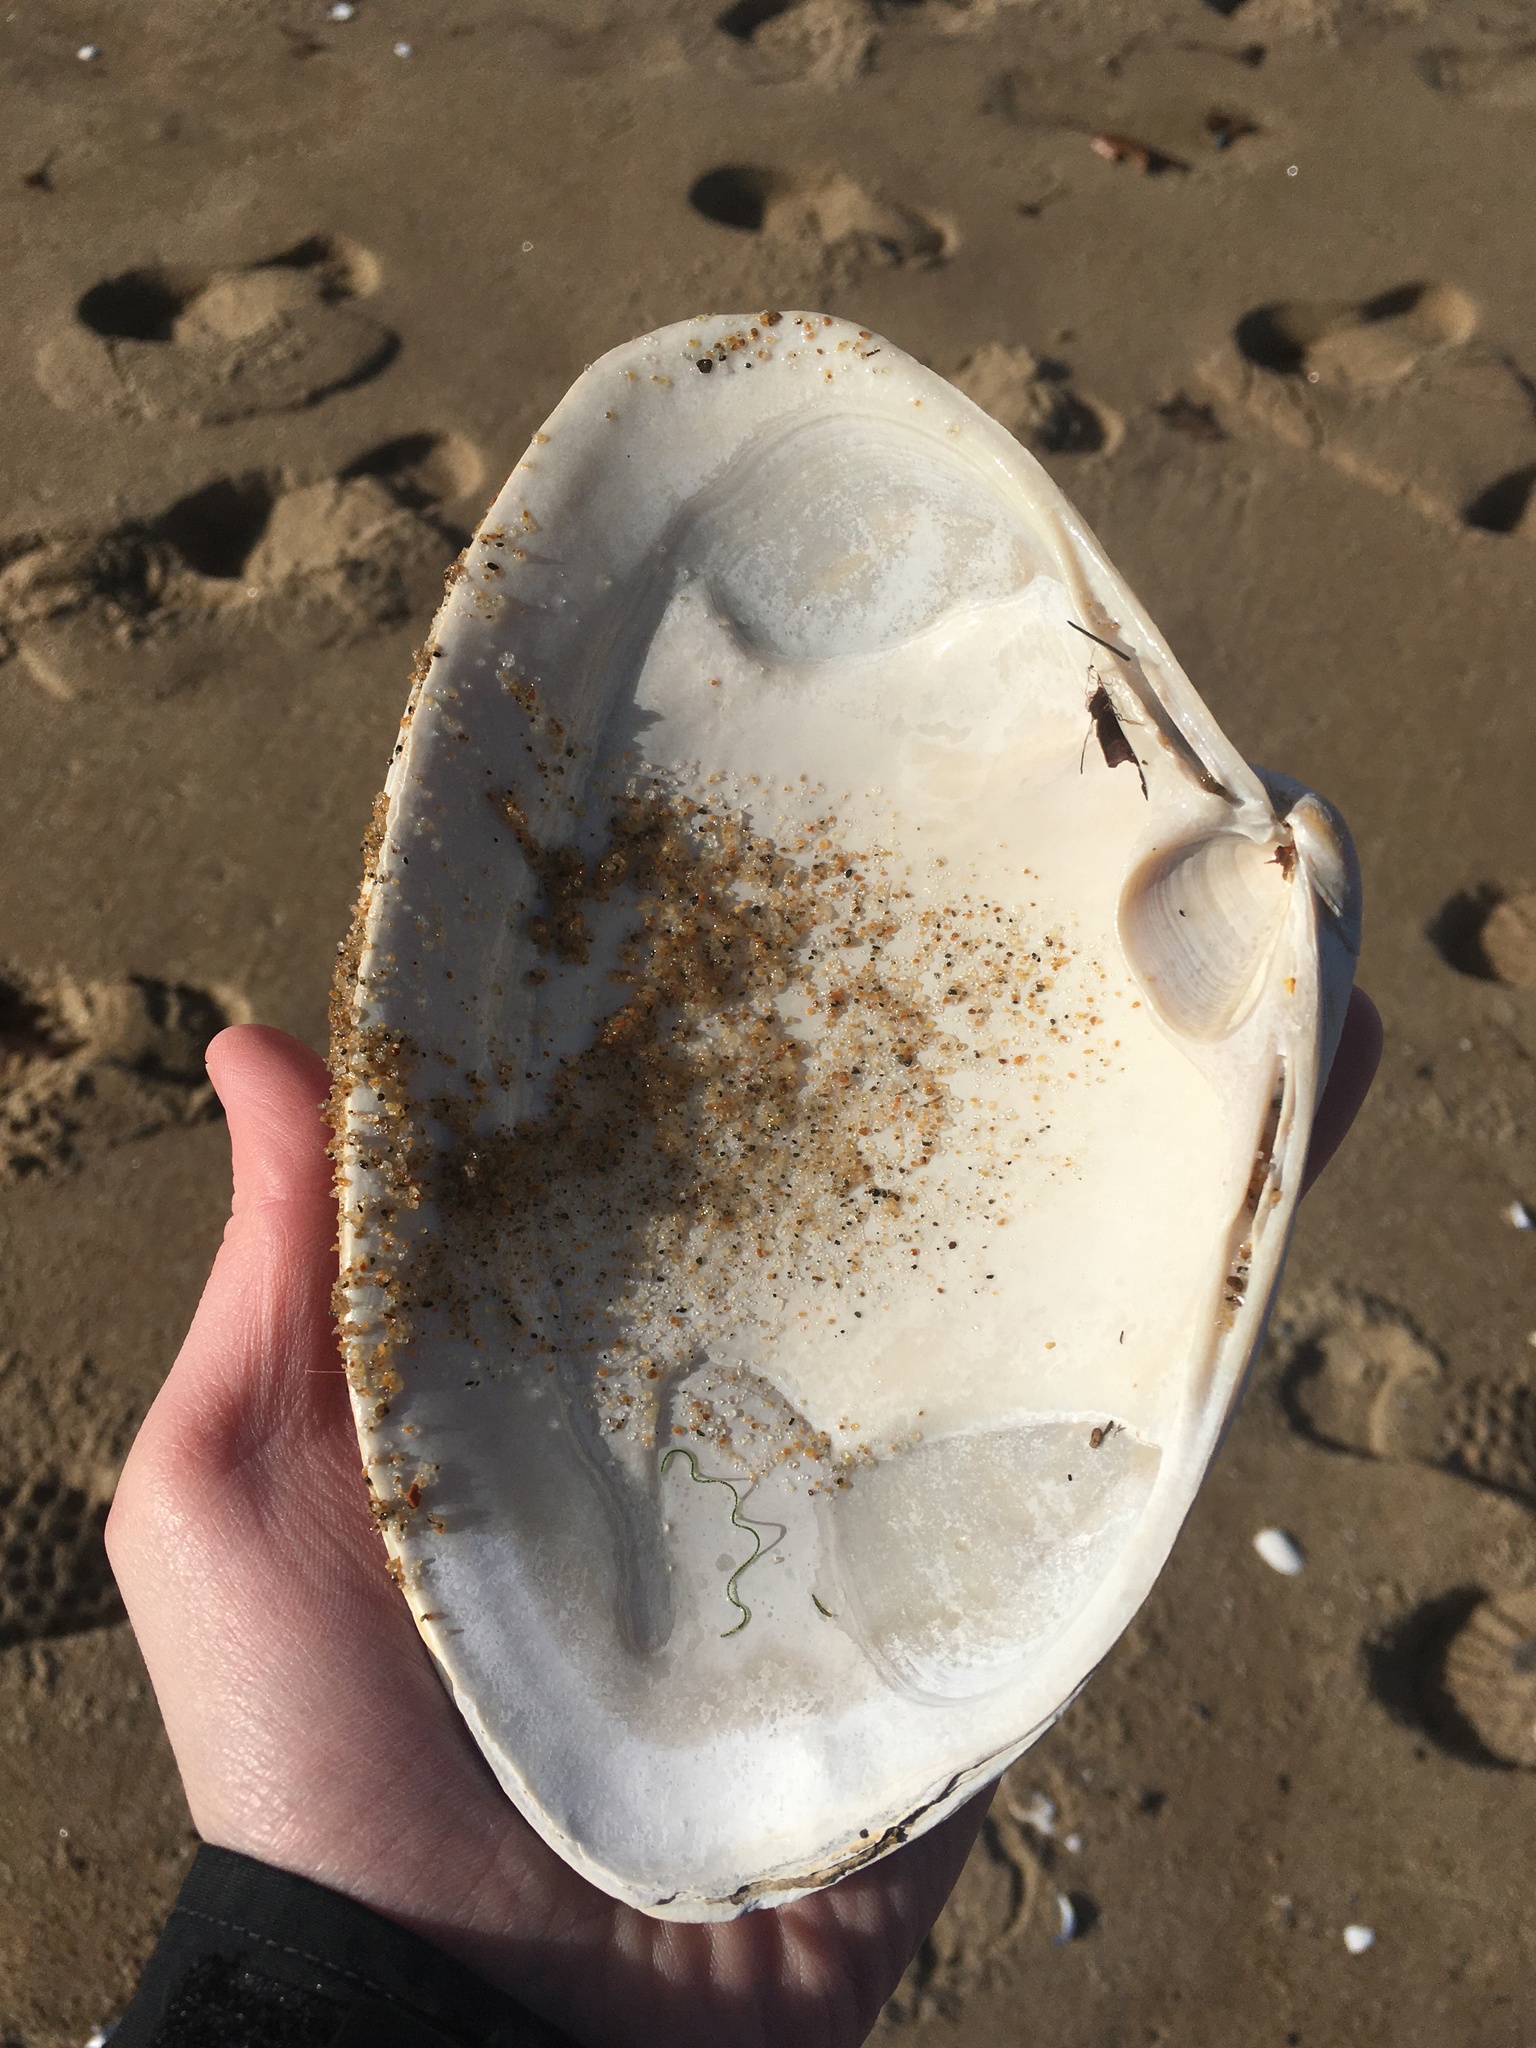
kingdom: Animalia
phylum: Mollusca
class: Bivalvia
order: Venerida
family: Mactridae
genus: Spisula
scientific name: Spisula solidissima
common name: Atlantic surf clam
